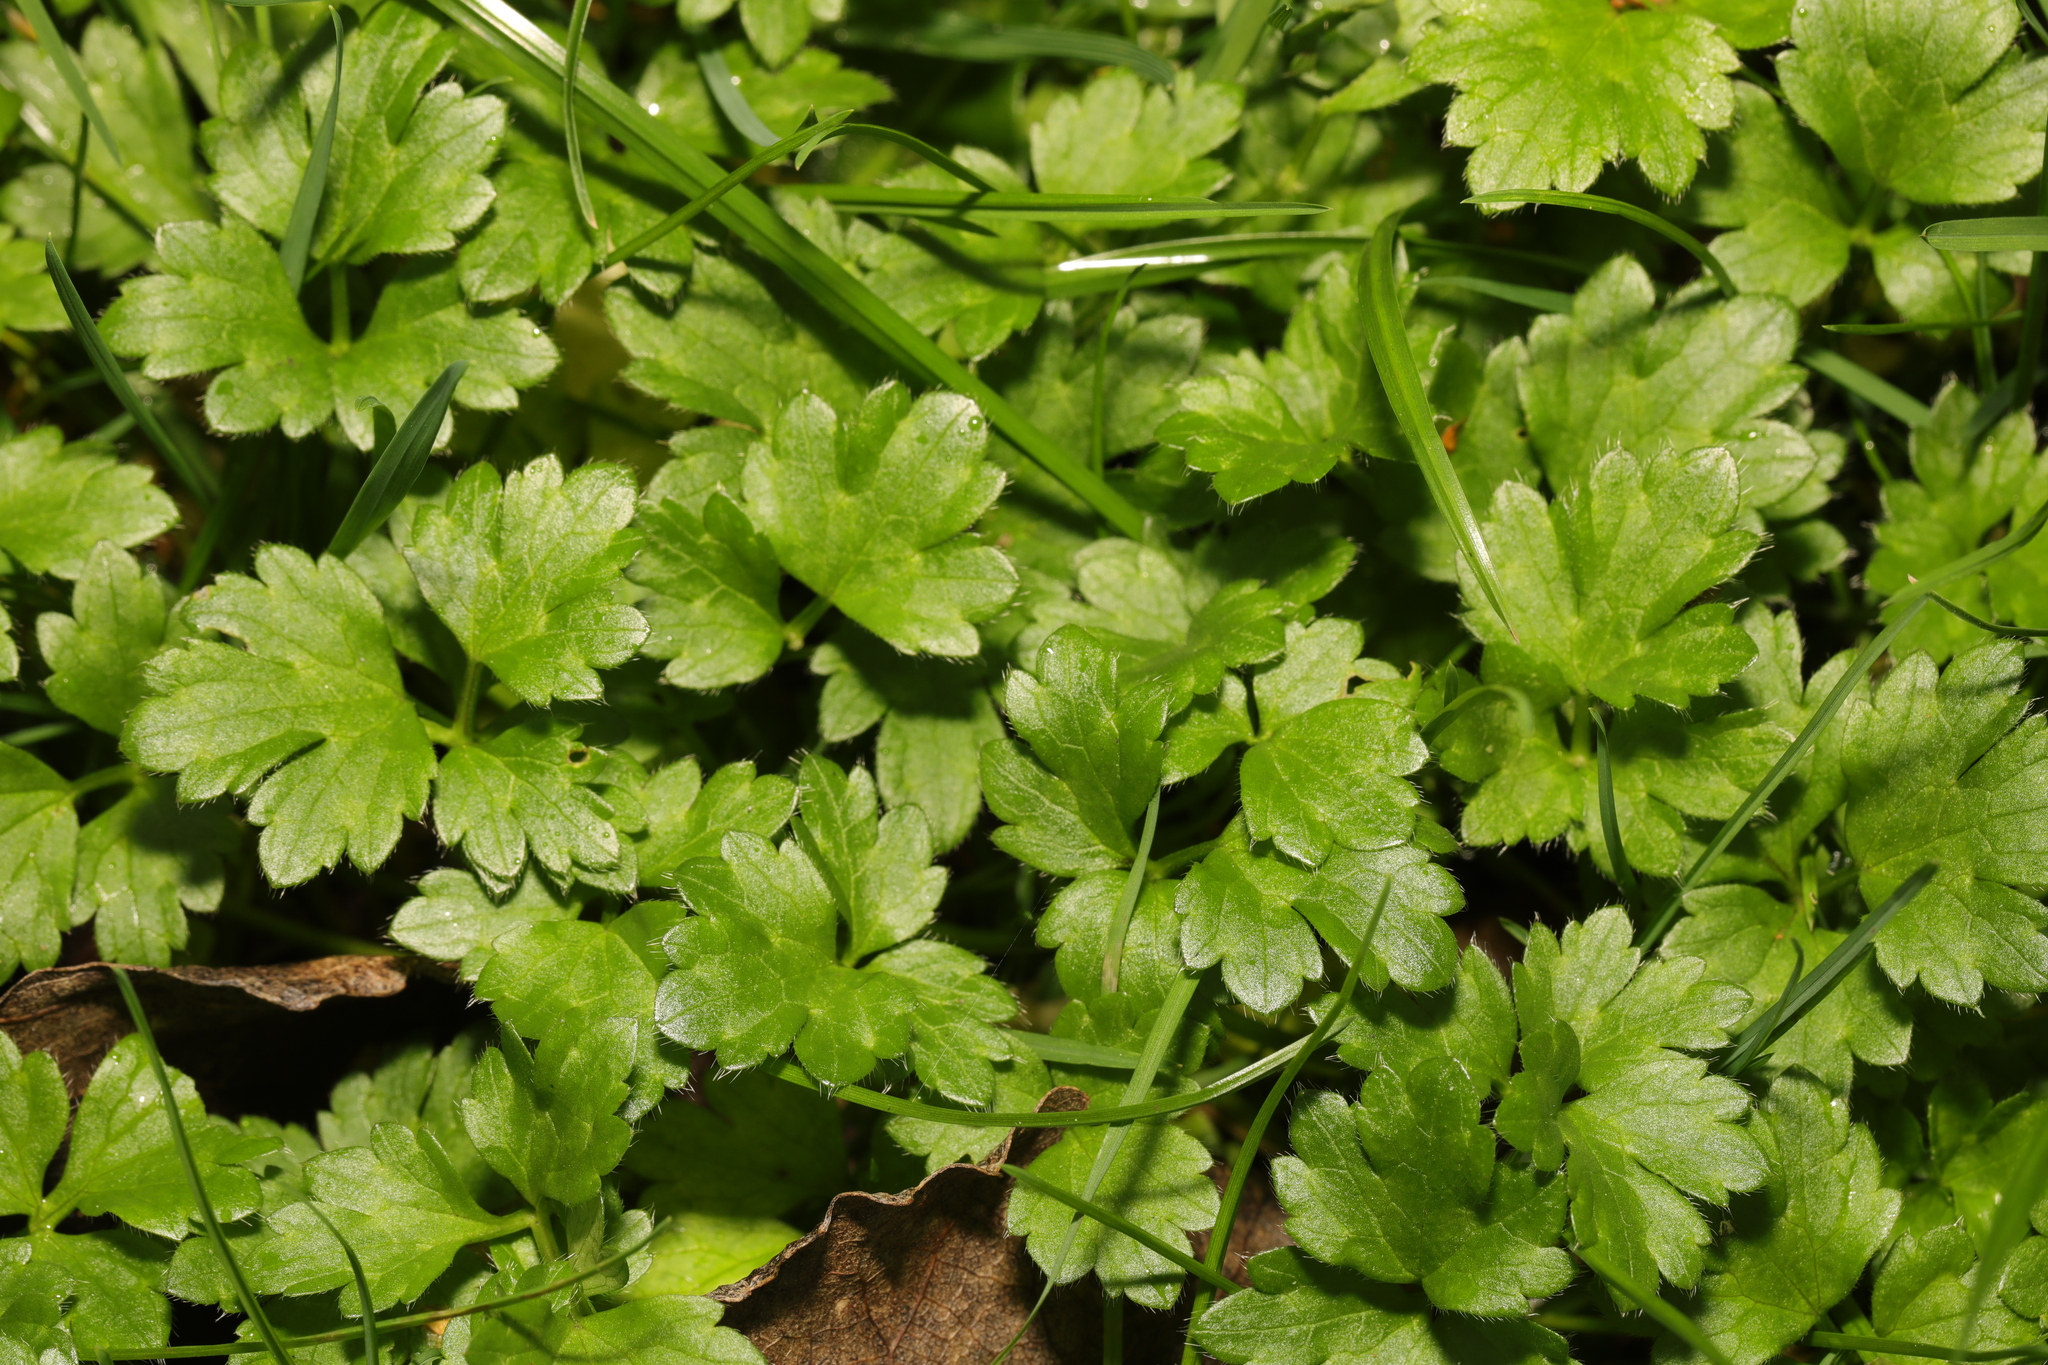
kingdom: Plantae
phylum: Tracheophyta
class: Magnoliopsida
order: Ranunculales
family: Ranunculaceae
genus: Ranunculus
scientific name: Ranunculus repens
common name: Creeping buttercup
